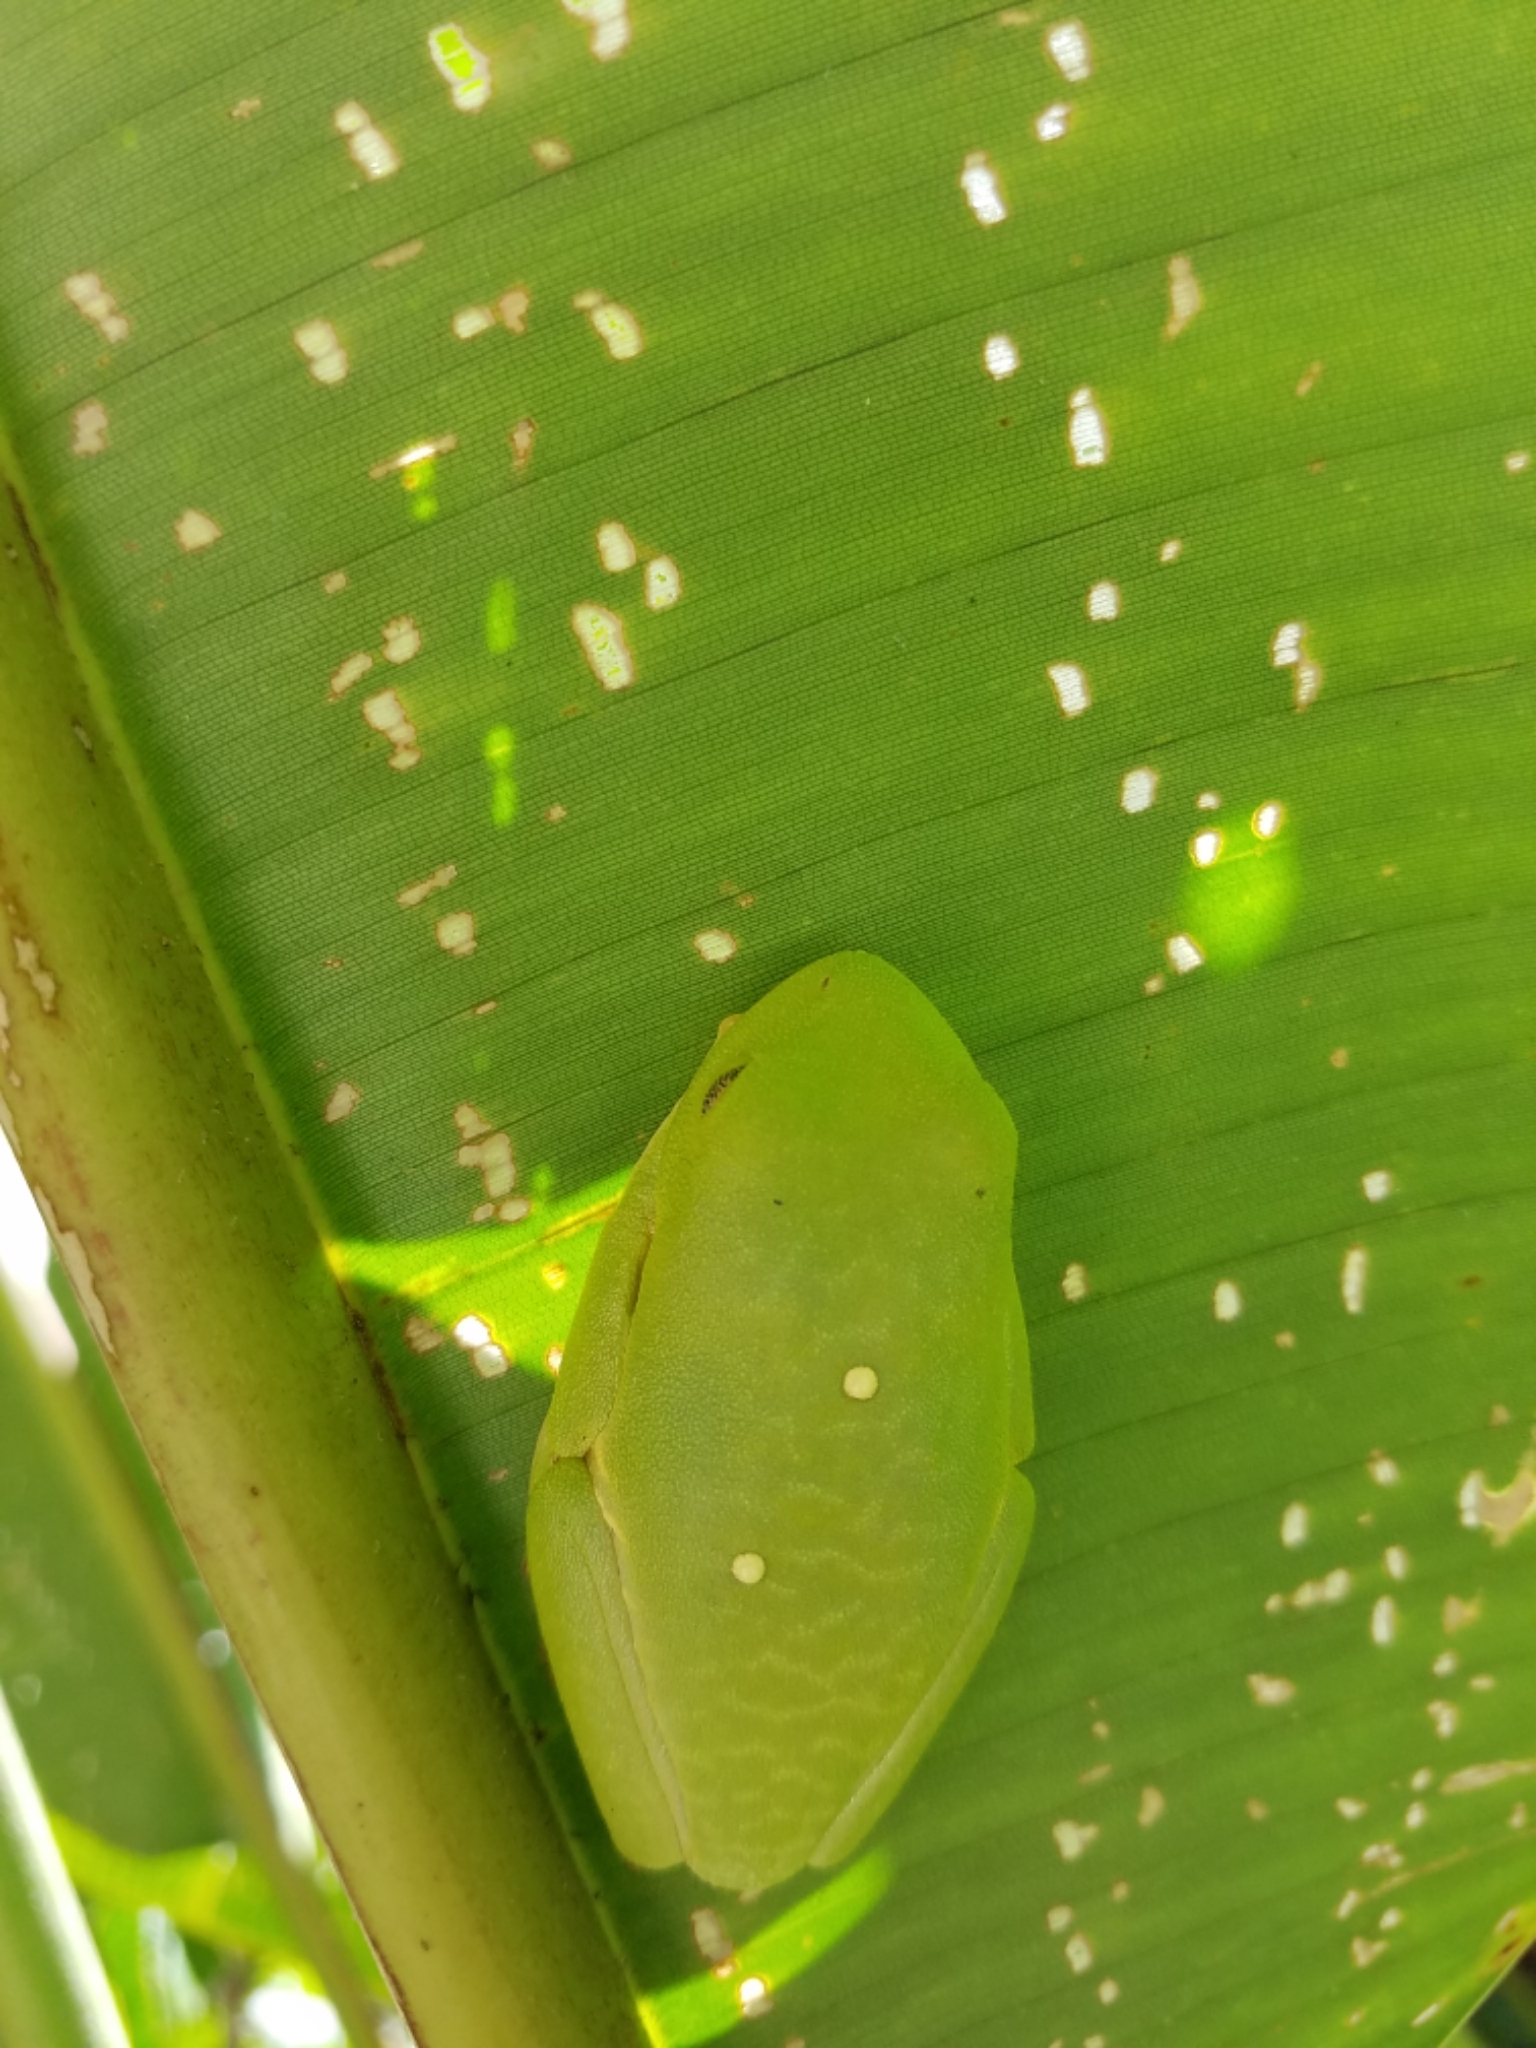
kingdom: Animalia
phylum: Chordata
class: Amphibia
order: Anura
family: Phyllomedusidae
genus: Agalychnis
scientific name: Agalychnis callidryas
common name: Red-eyed treefrog
